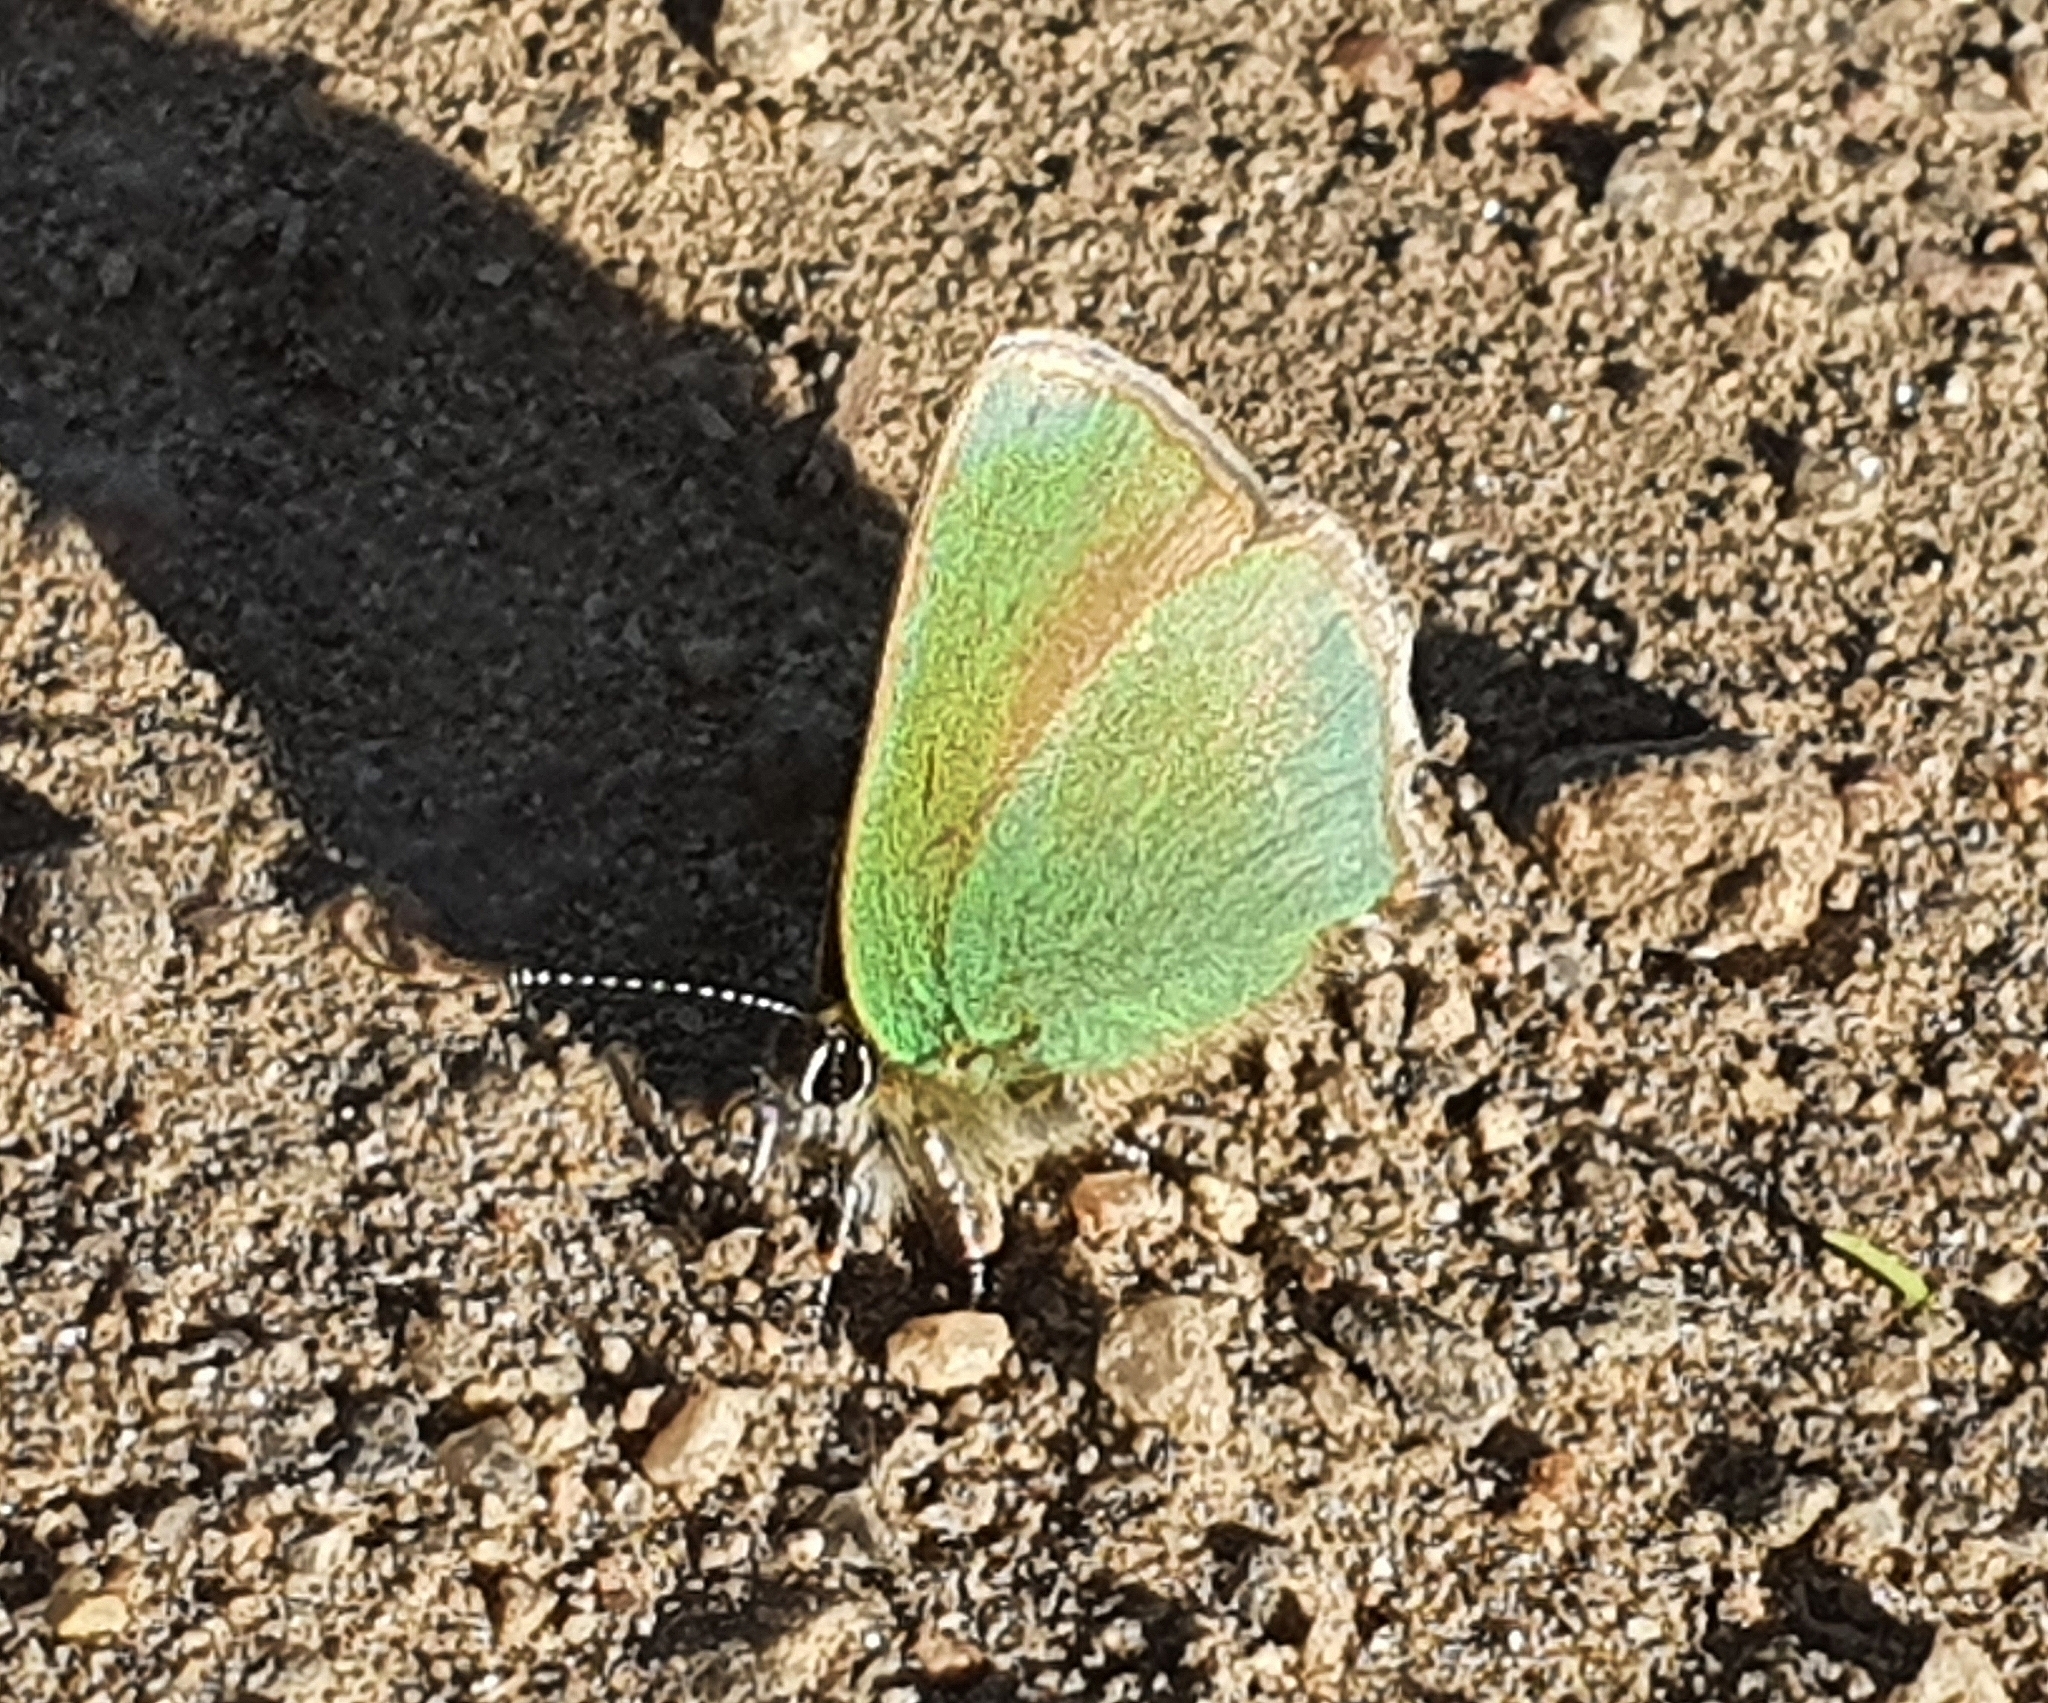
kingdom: Animalia
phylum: Arthropoda
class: Insecta
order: Lepidoptera
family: Lycaenidae
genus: Callophrys
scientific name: Callophrys rubi
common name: Green hairstreak
